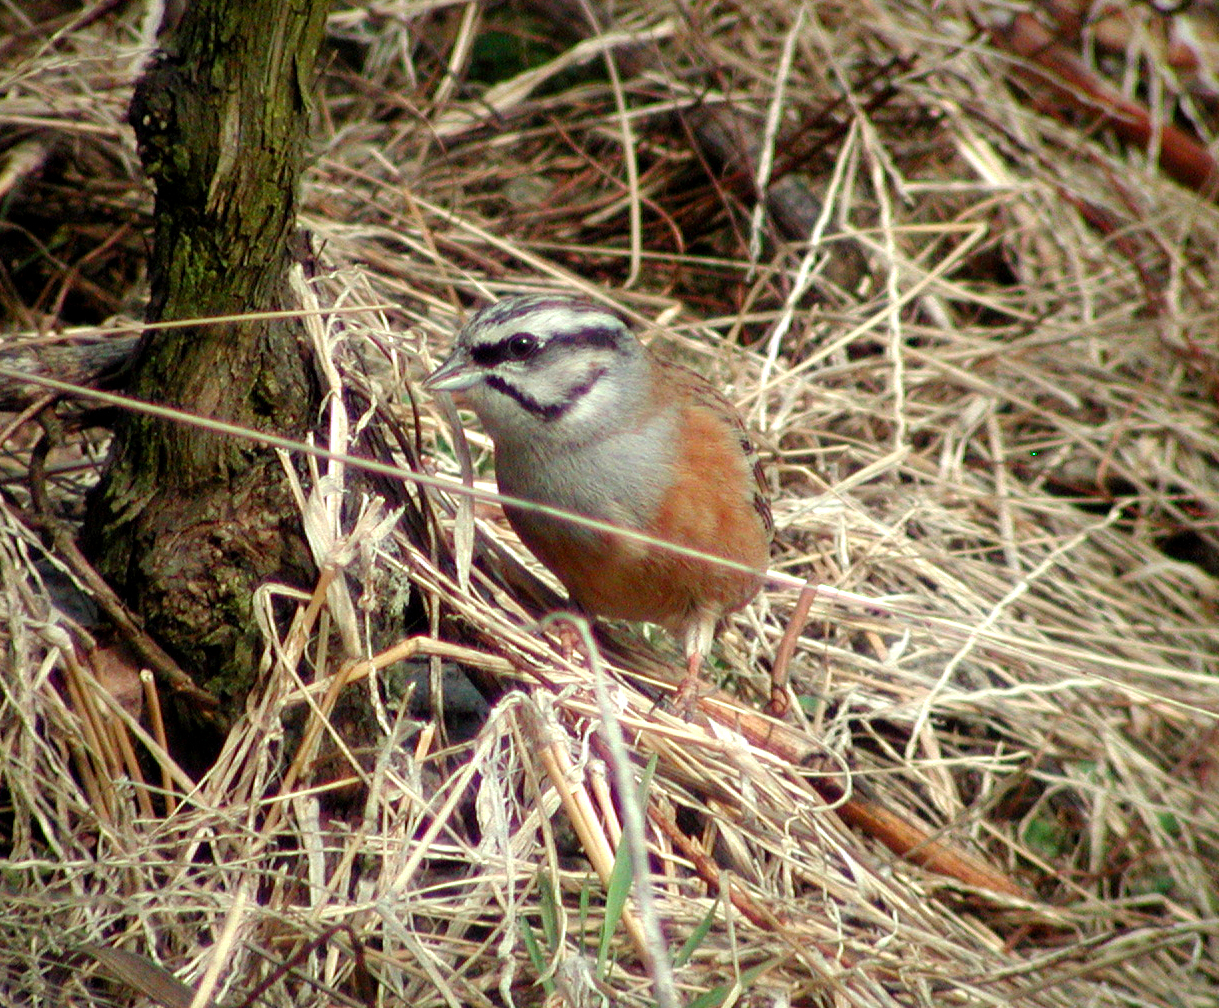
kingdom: Animalia
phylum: Chordata
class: Aves
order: Passeriformes
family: Emberizidae
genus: Emberiza
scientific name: Emberiza cia
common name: Rock bunting
